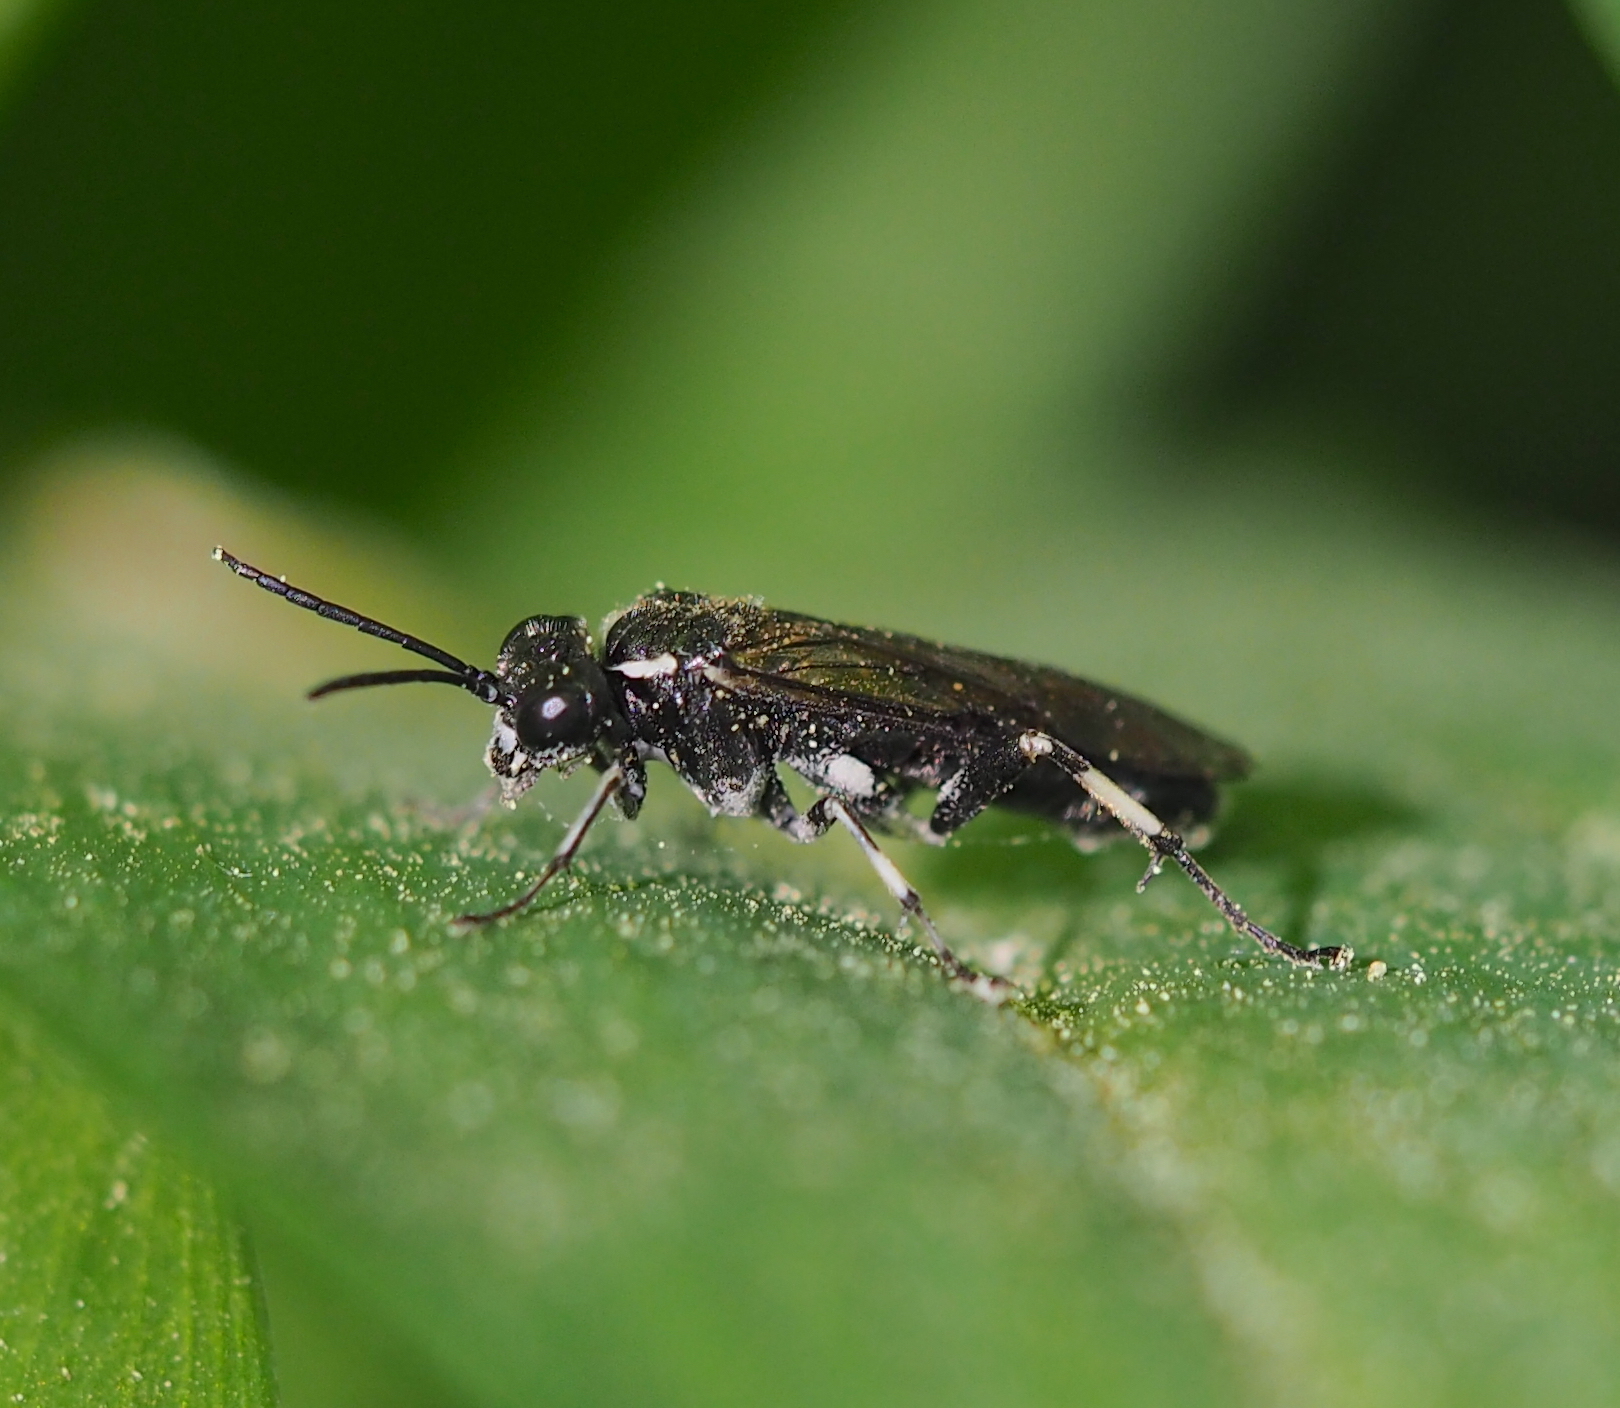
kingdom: Animalia
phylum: Arthropoda
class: Insecta
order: Hymenoptera
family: Tenthredinidae
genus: Macrophya
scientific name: Macrophya alboannulata
